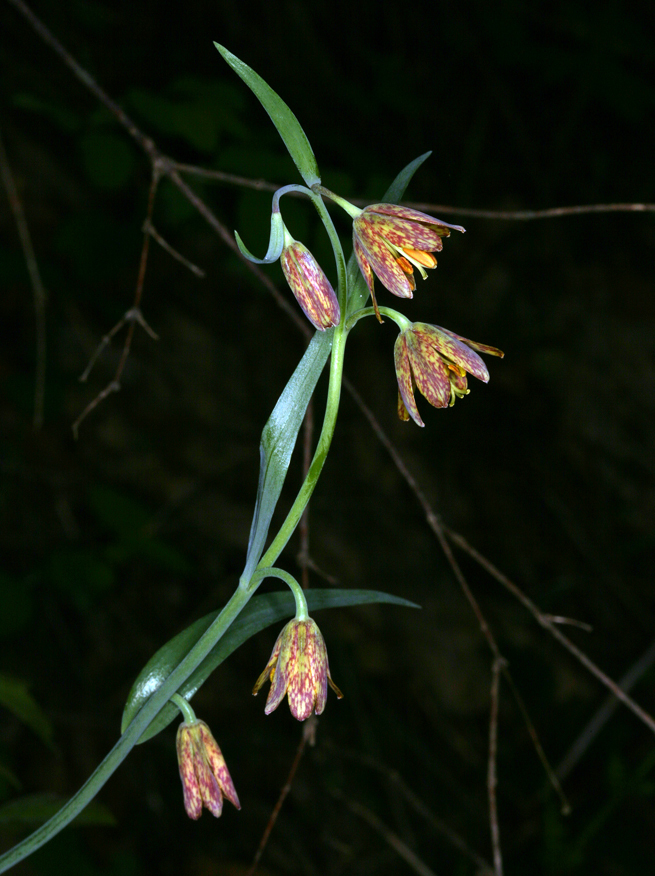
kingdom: Plantae
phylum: Tracheophyta
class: Liliopsida
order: Liliales
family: Liliaceae
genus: Fritillaria
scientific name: Fritillaria affinis
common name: Ojai fritillary
